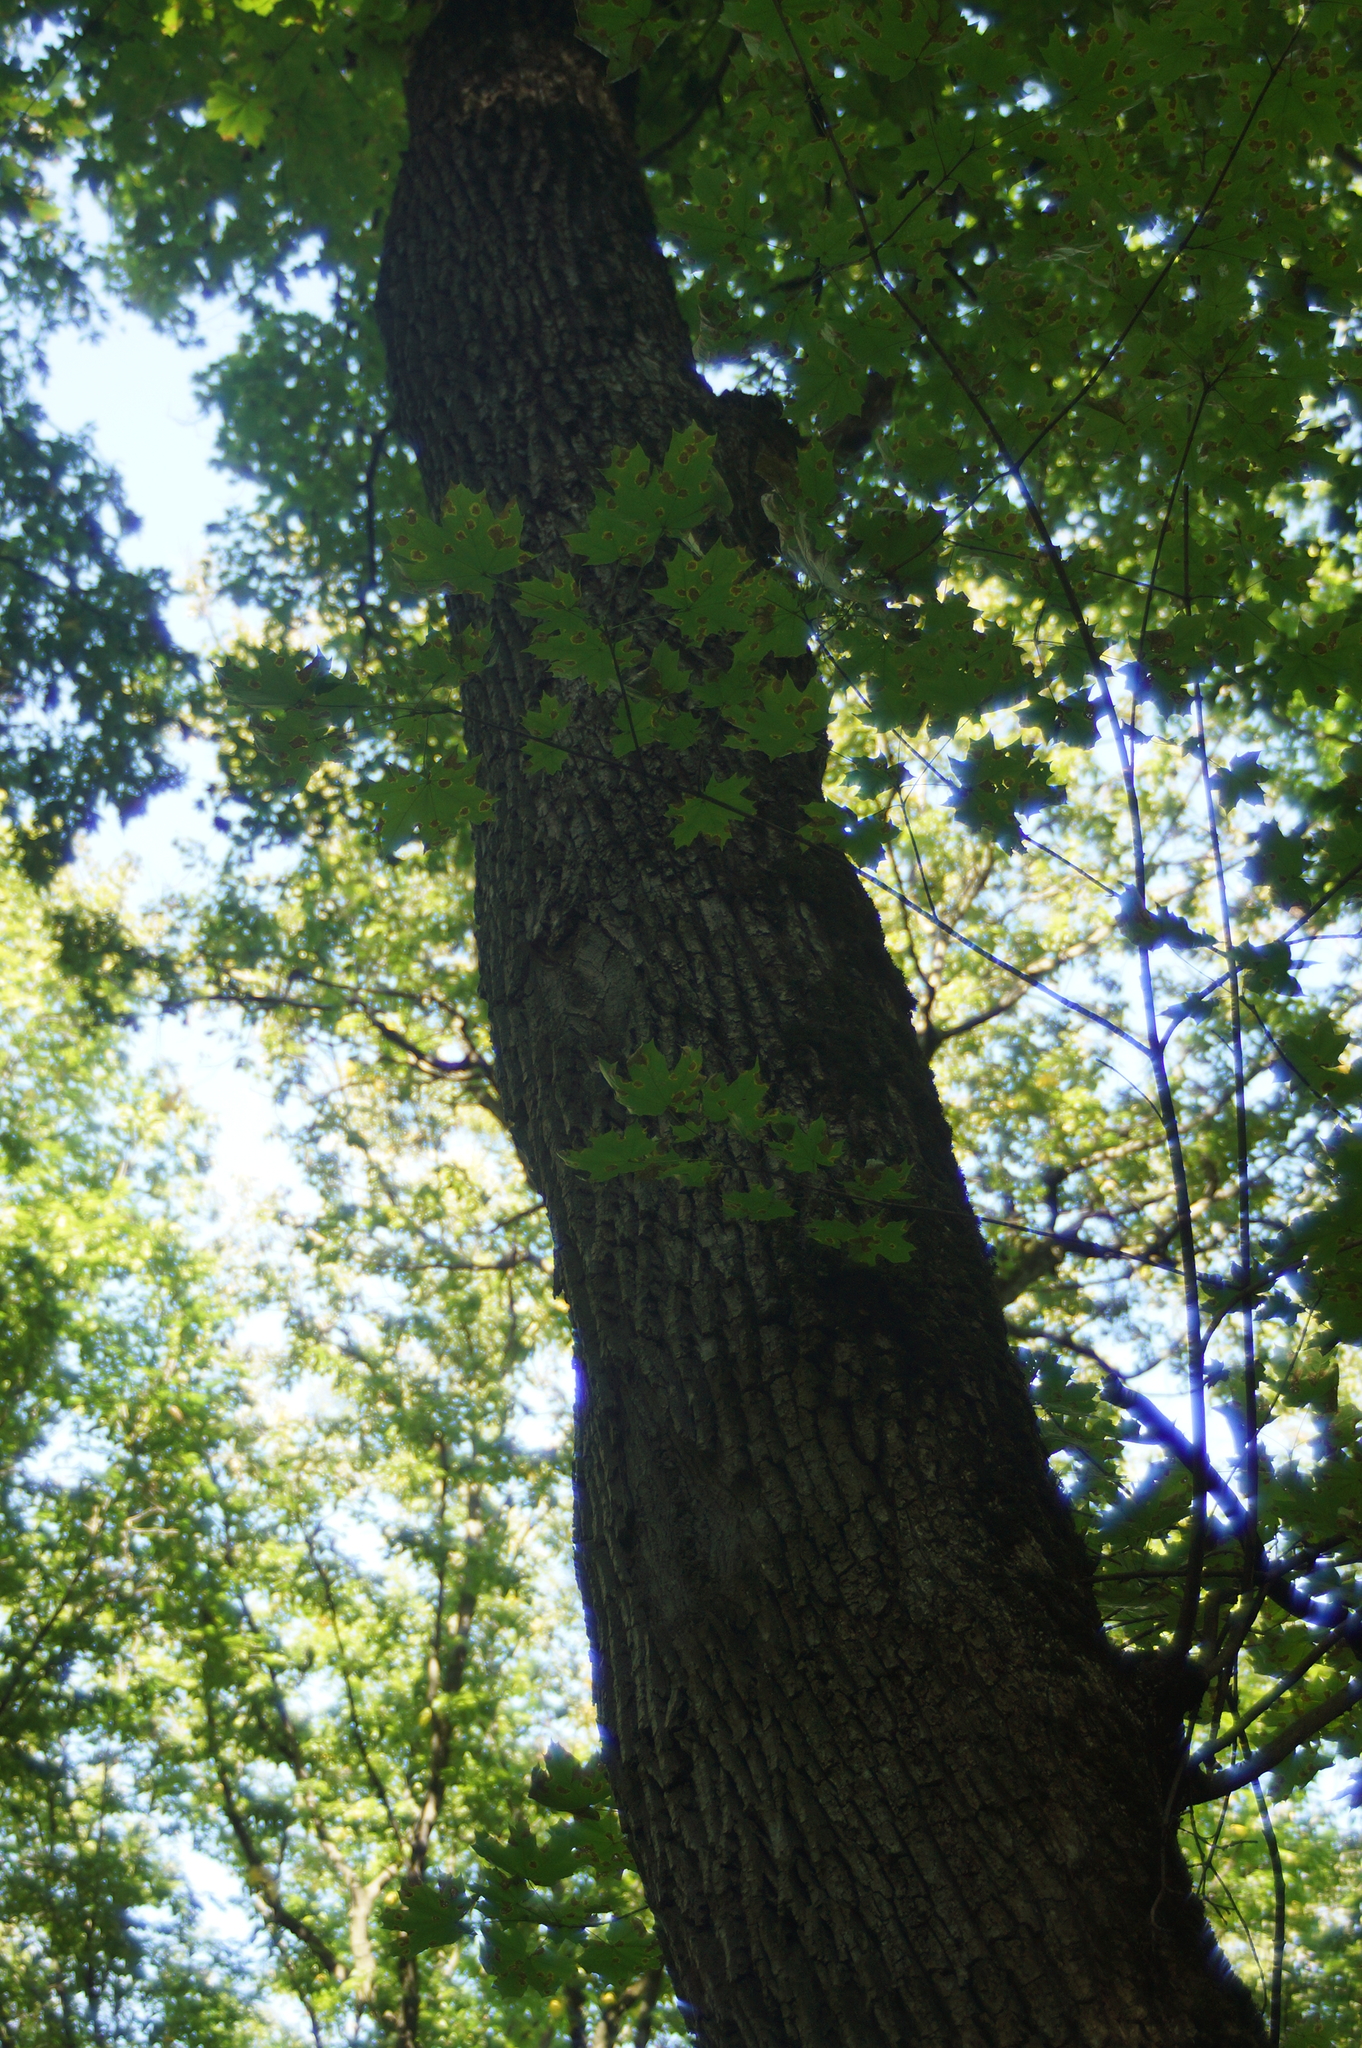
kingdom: Plantae
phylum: Tracheophyta
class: Magnoliopsida
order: Sapindales
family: Sapindaceae
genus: Acer
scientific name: Acer platanoides
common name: Norway maple
